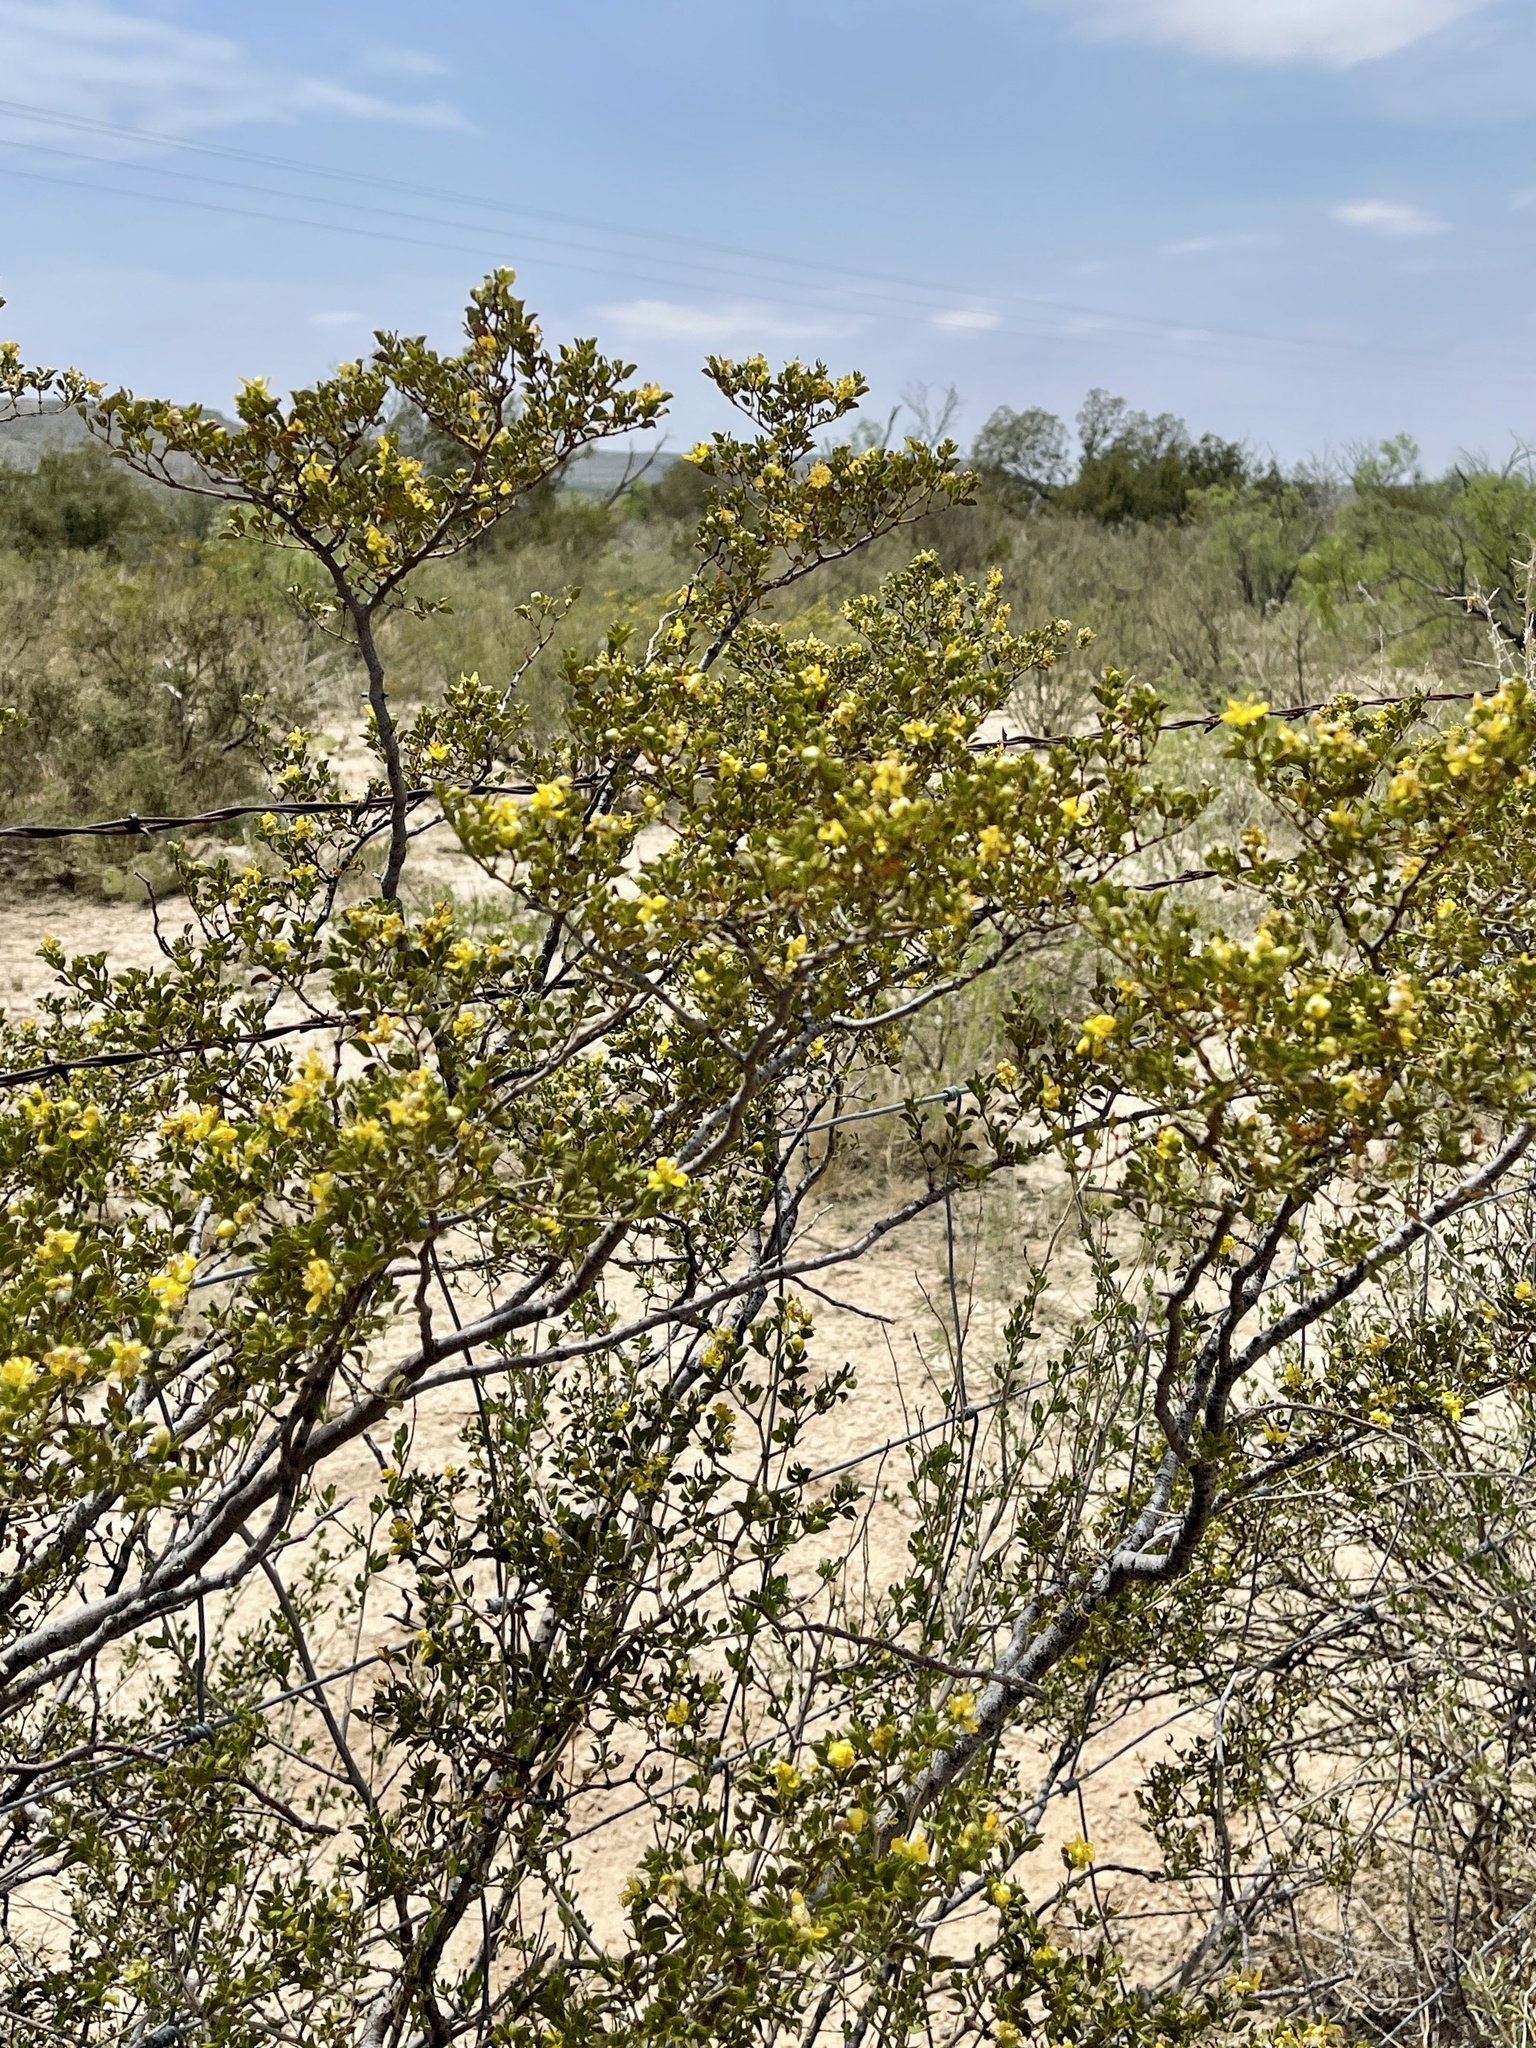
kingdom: Plantae
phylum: Tracheophyta
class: Magnoliopsida
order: Zygophyllales
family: Zygophyllaceae
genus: Larrea
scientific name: Larrea tridentata
